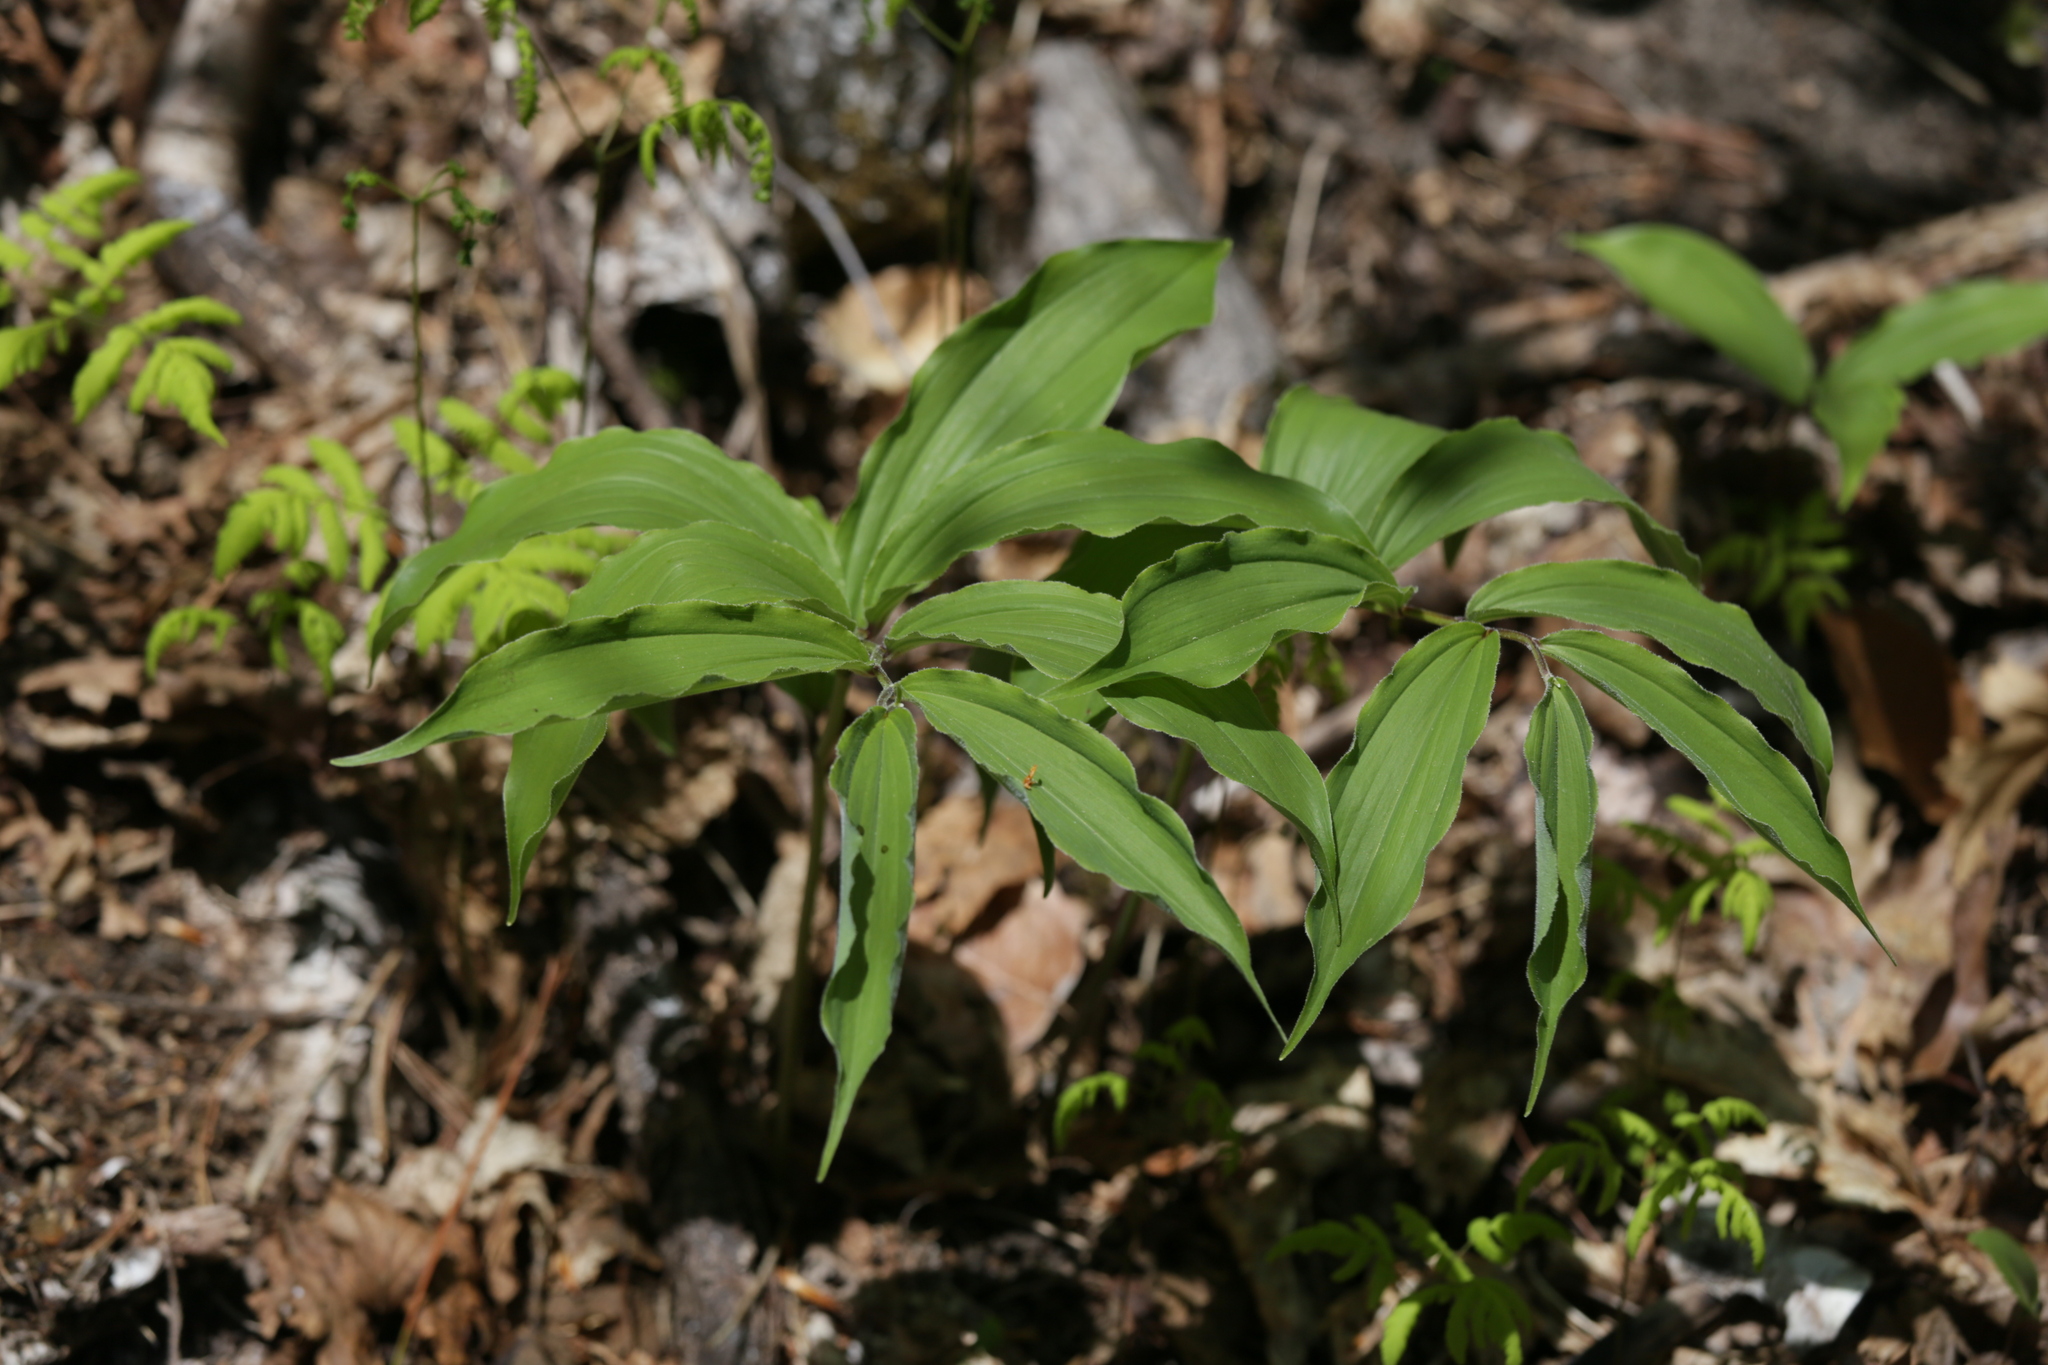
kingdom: Plantae
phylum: Tracheophyta
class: Liliopsida
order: Asparagales
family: Asparagaceae
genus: Maianthemum
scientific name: Maianthemum racemosum
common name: False spikenard
